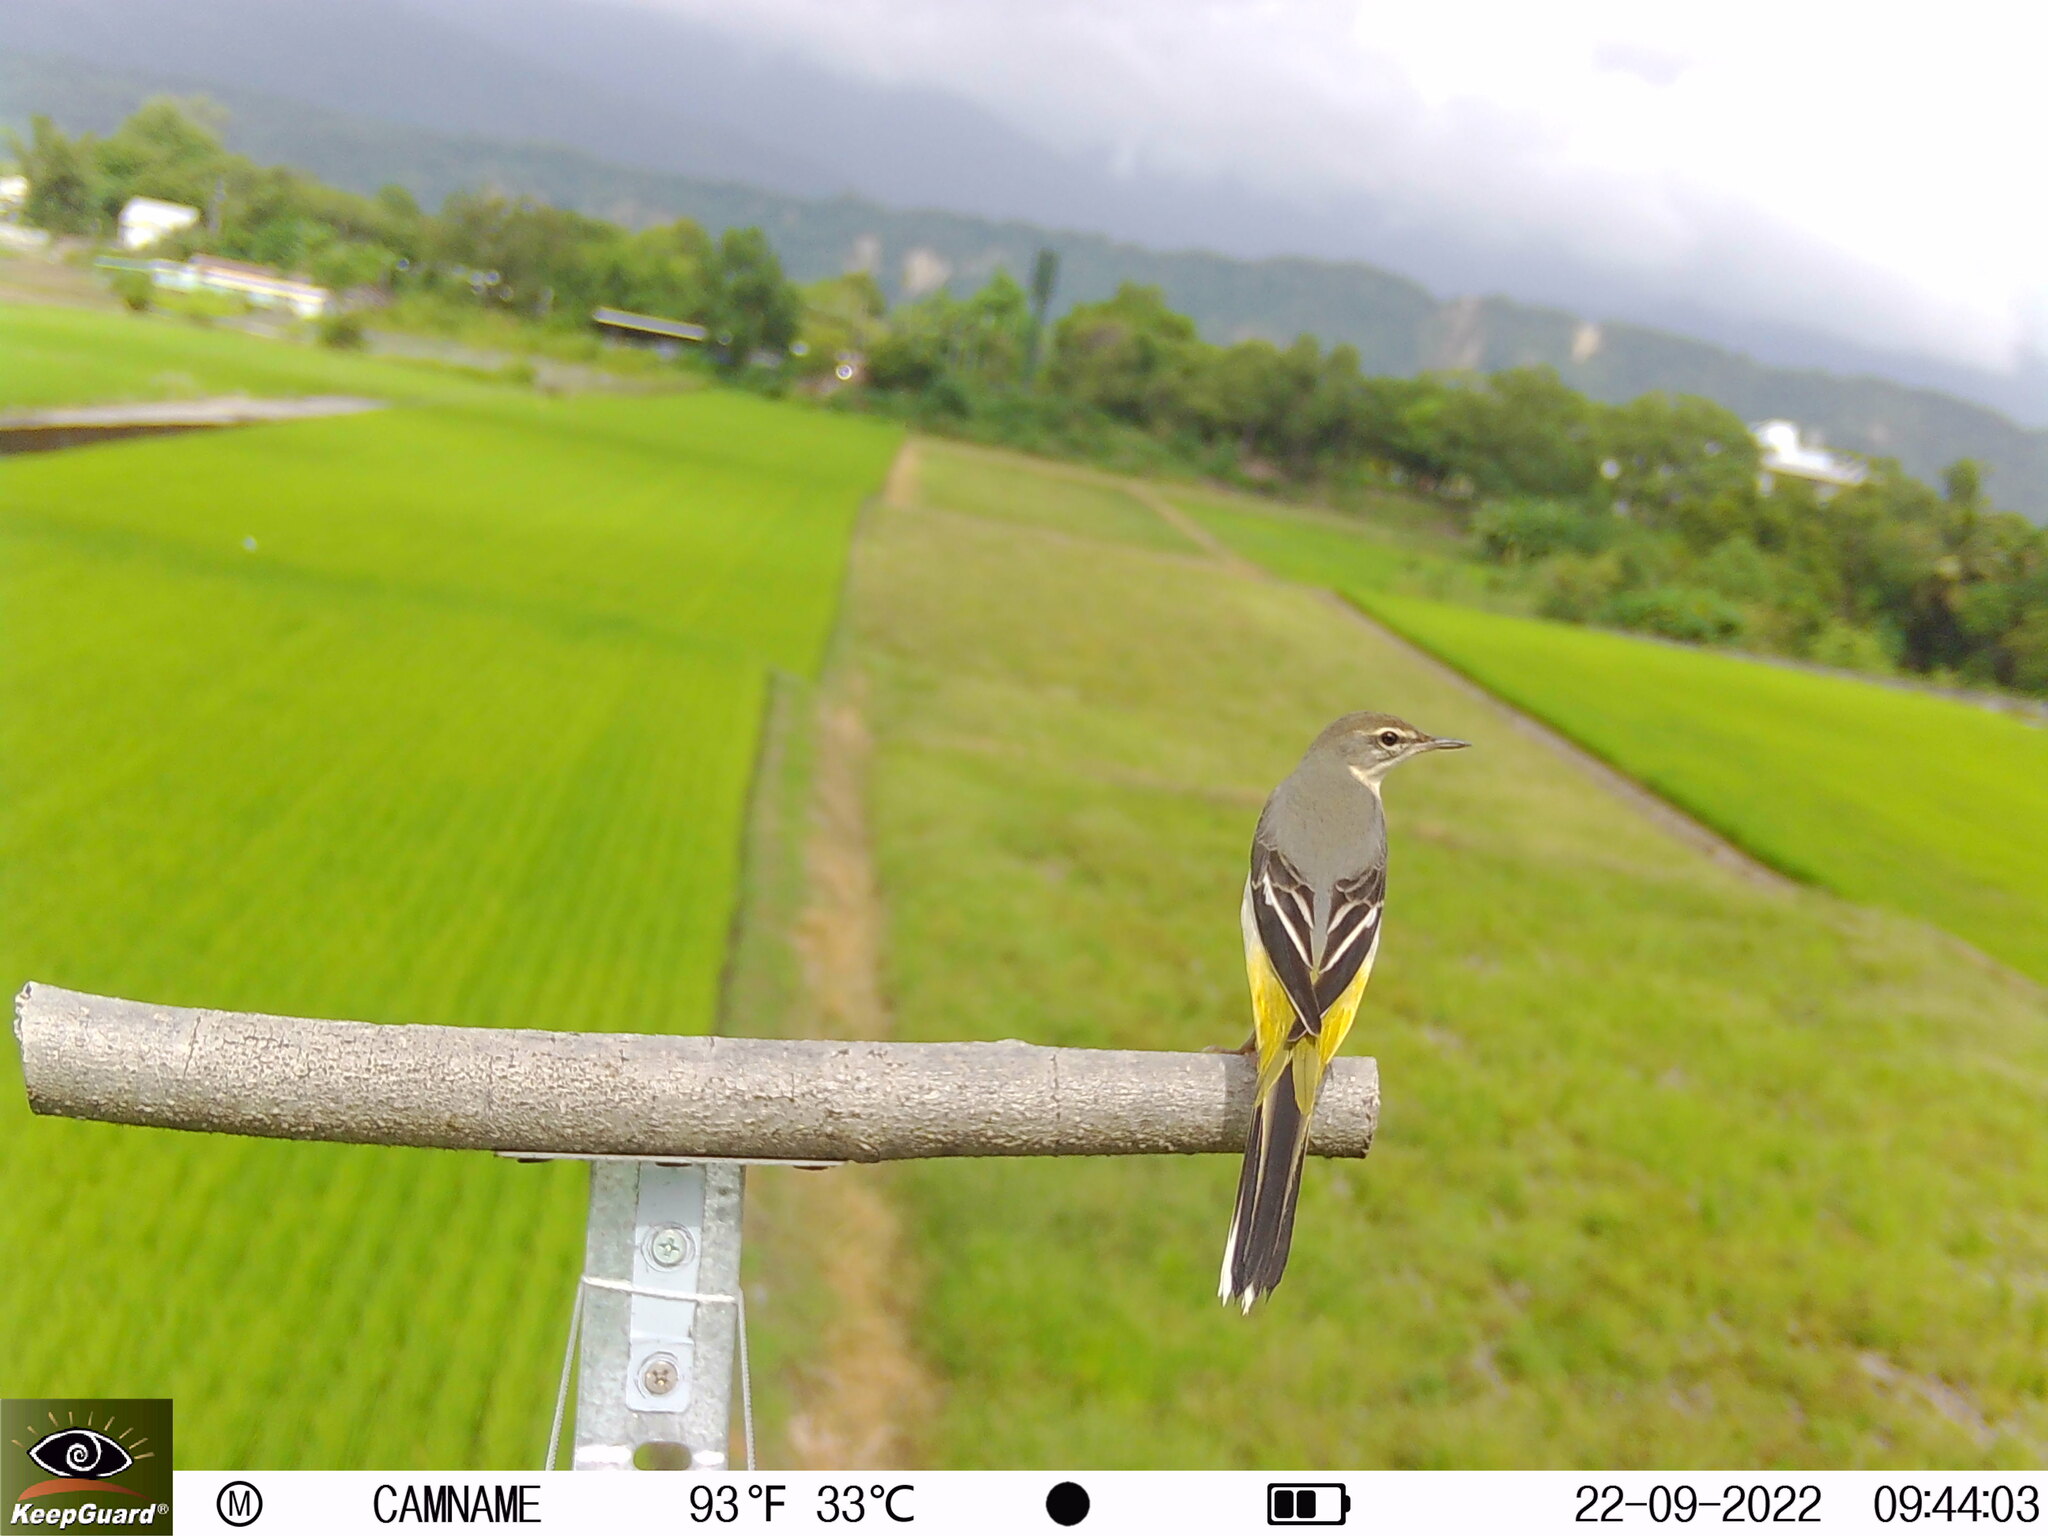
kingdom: Animalia
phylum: Chordata
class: Aves
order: Passeriformes
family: Motacillidae
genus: Motacilla
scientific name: Motacilla cinerea
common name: Grey wagtail
